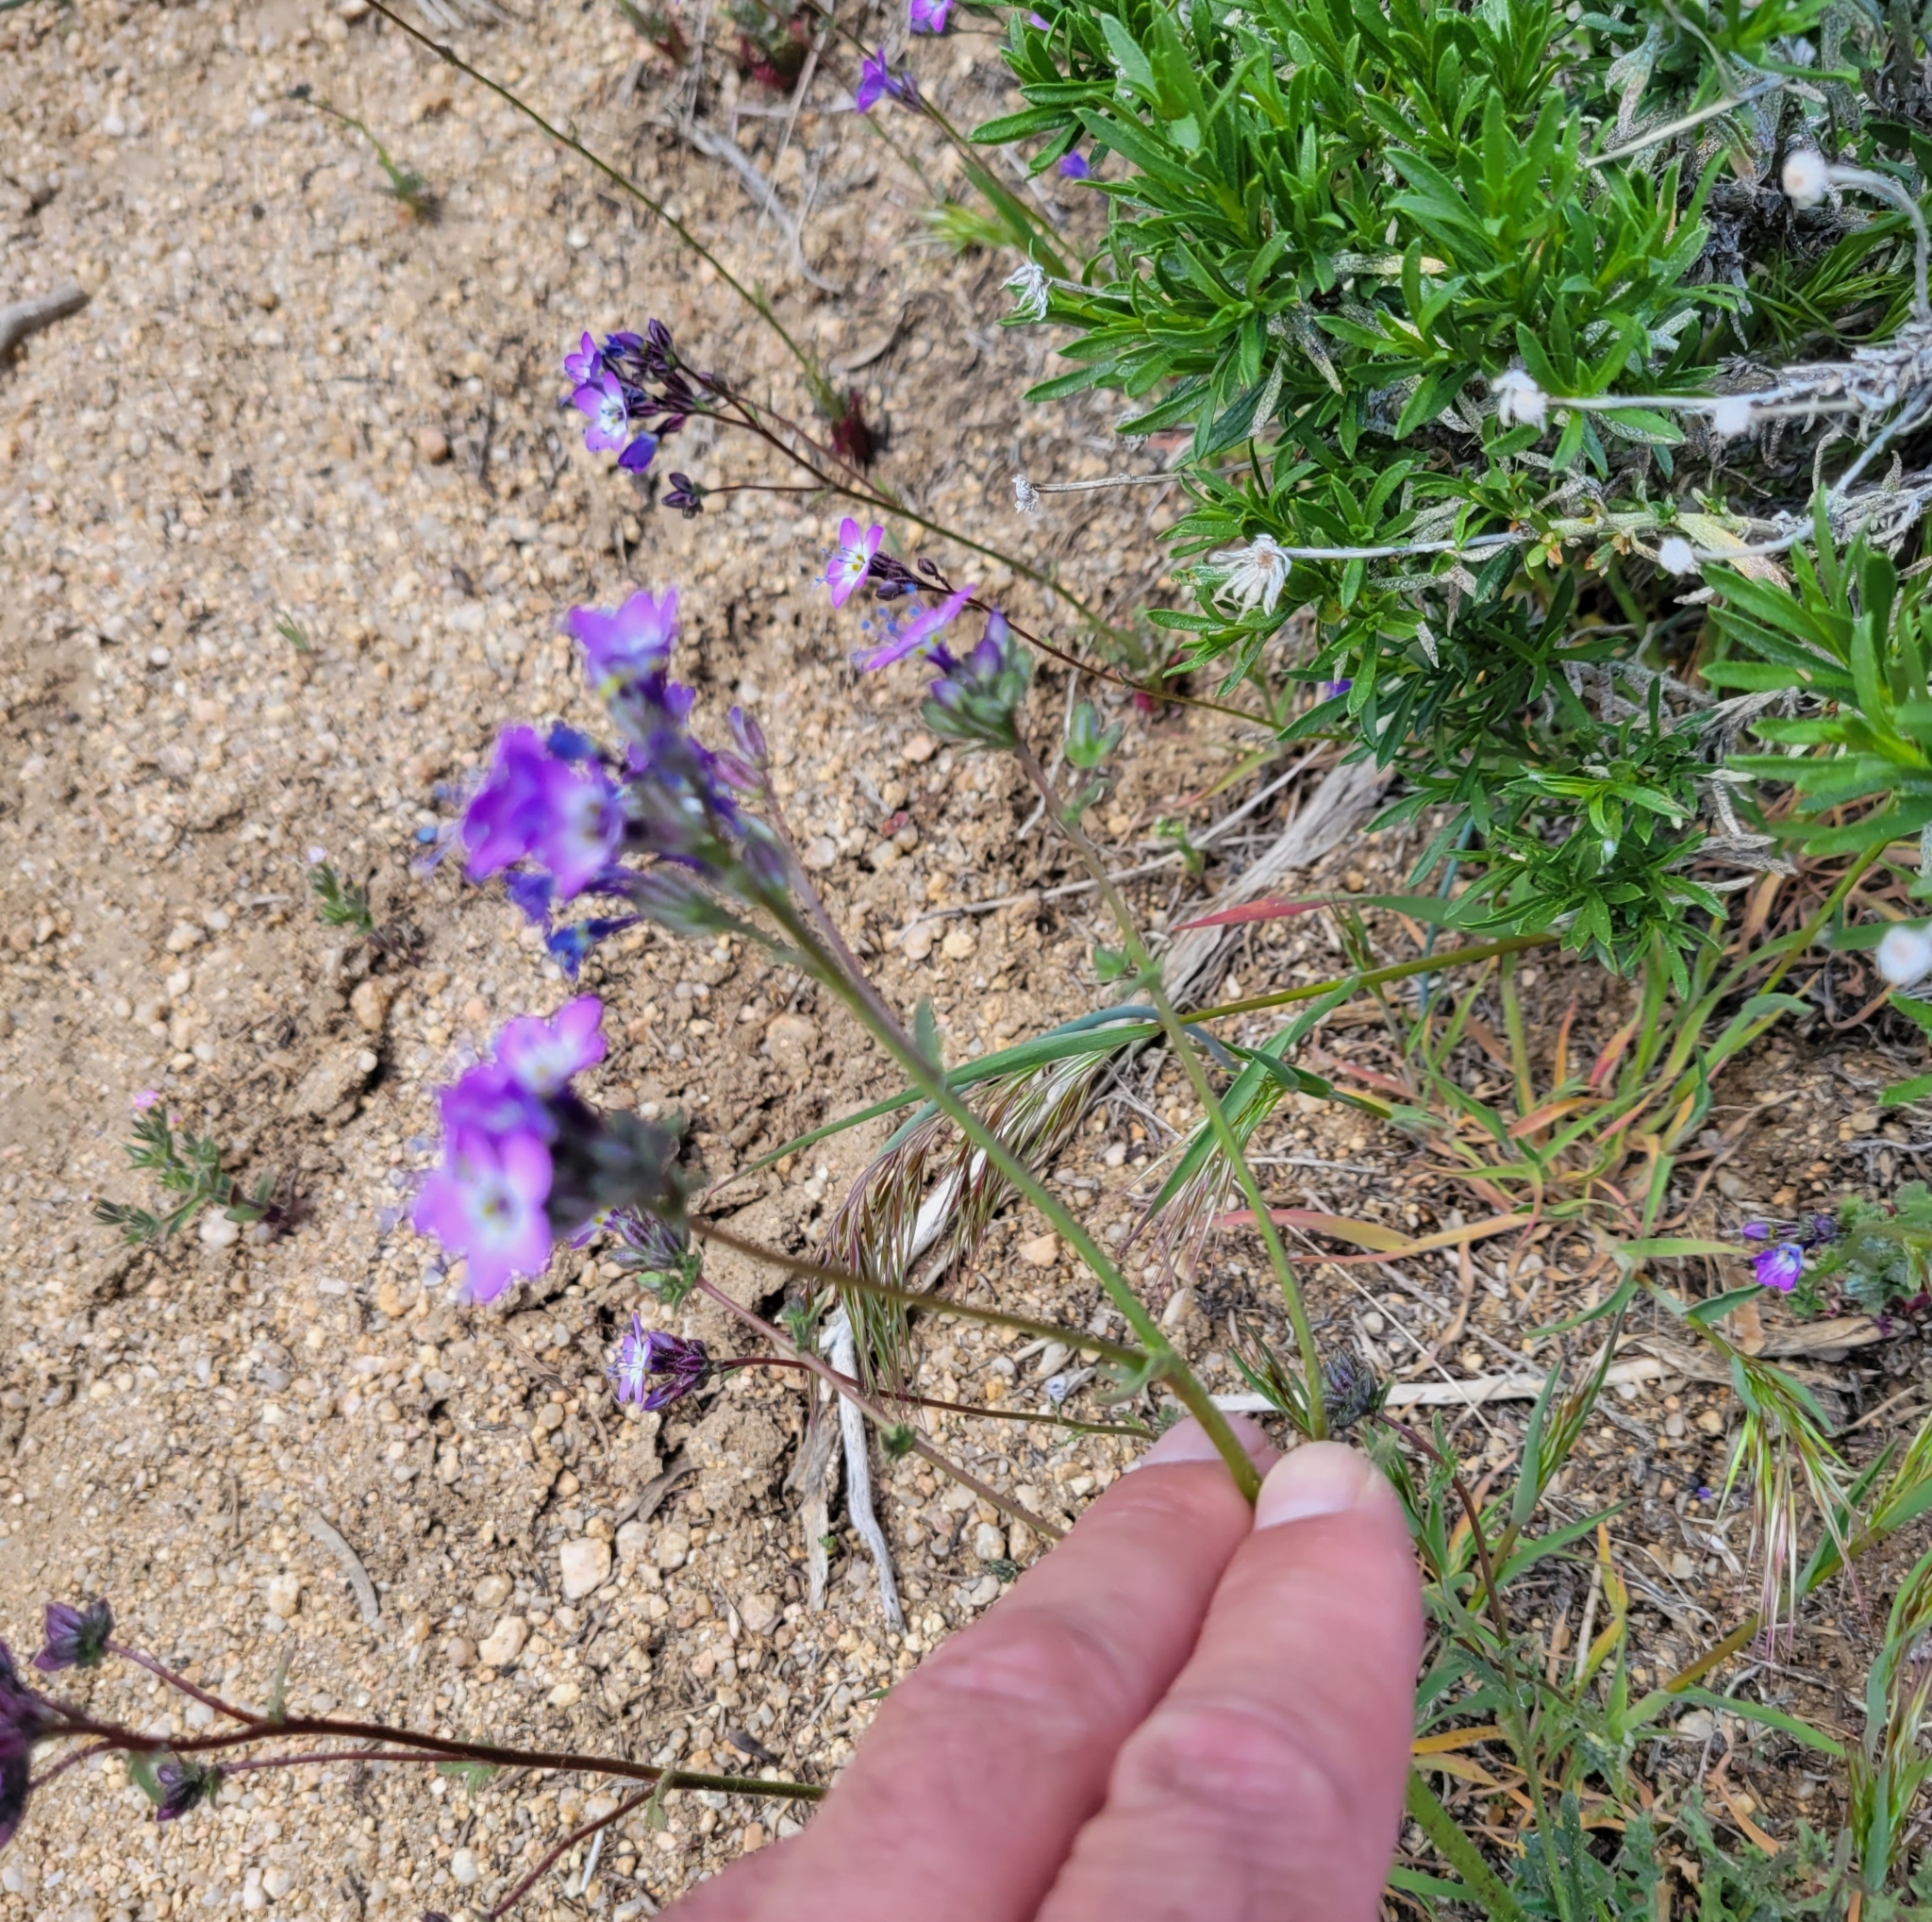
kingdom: Plantae
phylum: Tracheophyta
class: Magnoliopsida
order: Ericales
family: Polemoniaceae
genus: Gilia
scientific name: Gilia brecciarum
